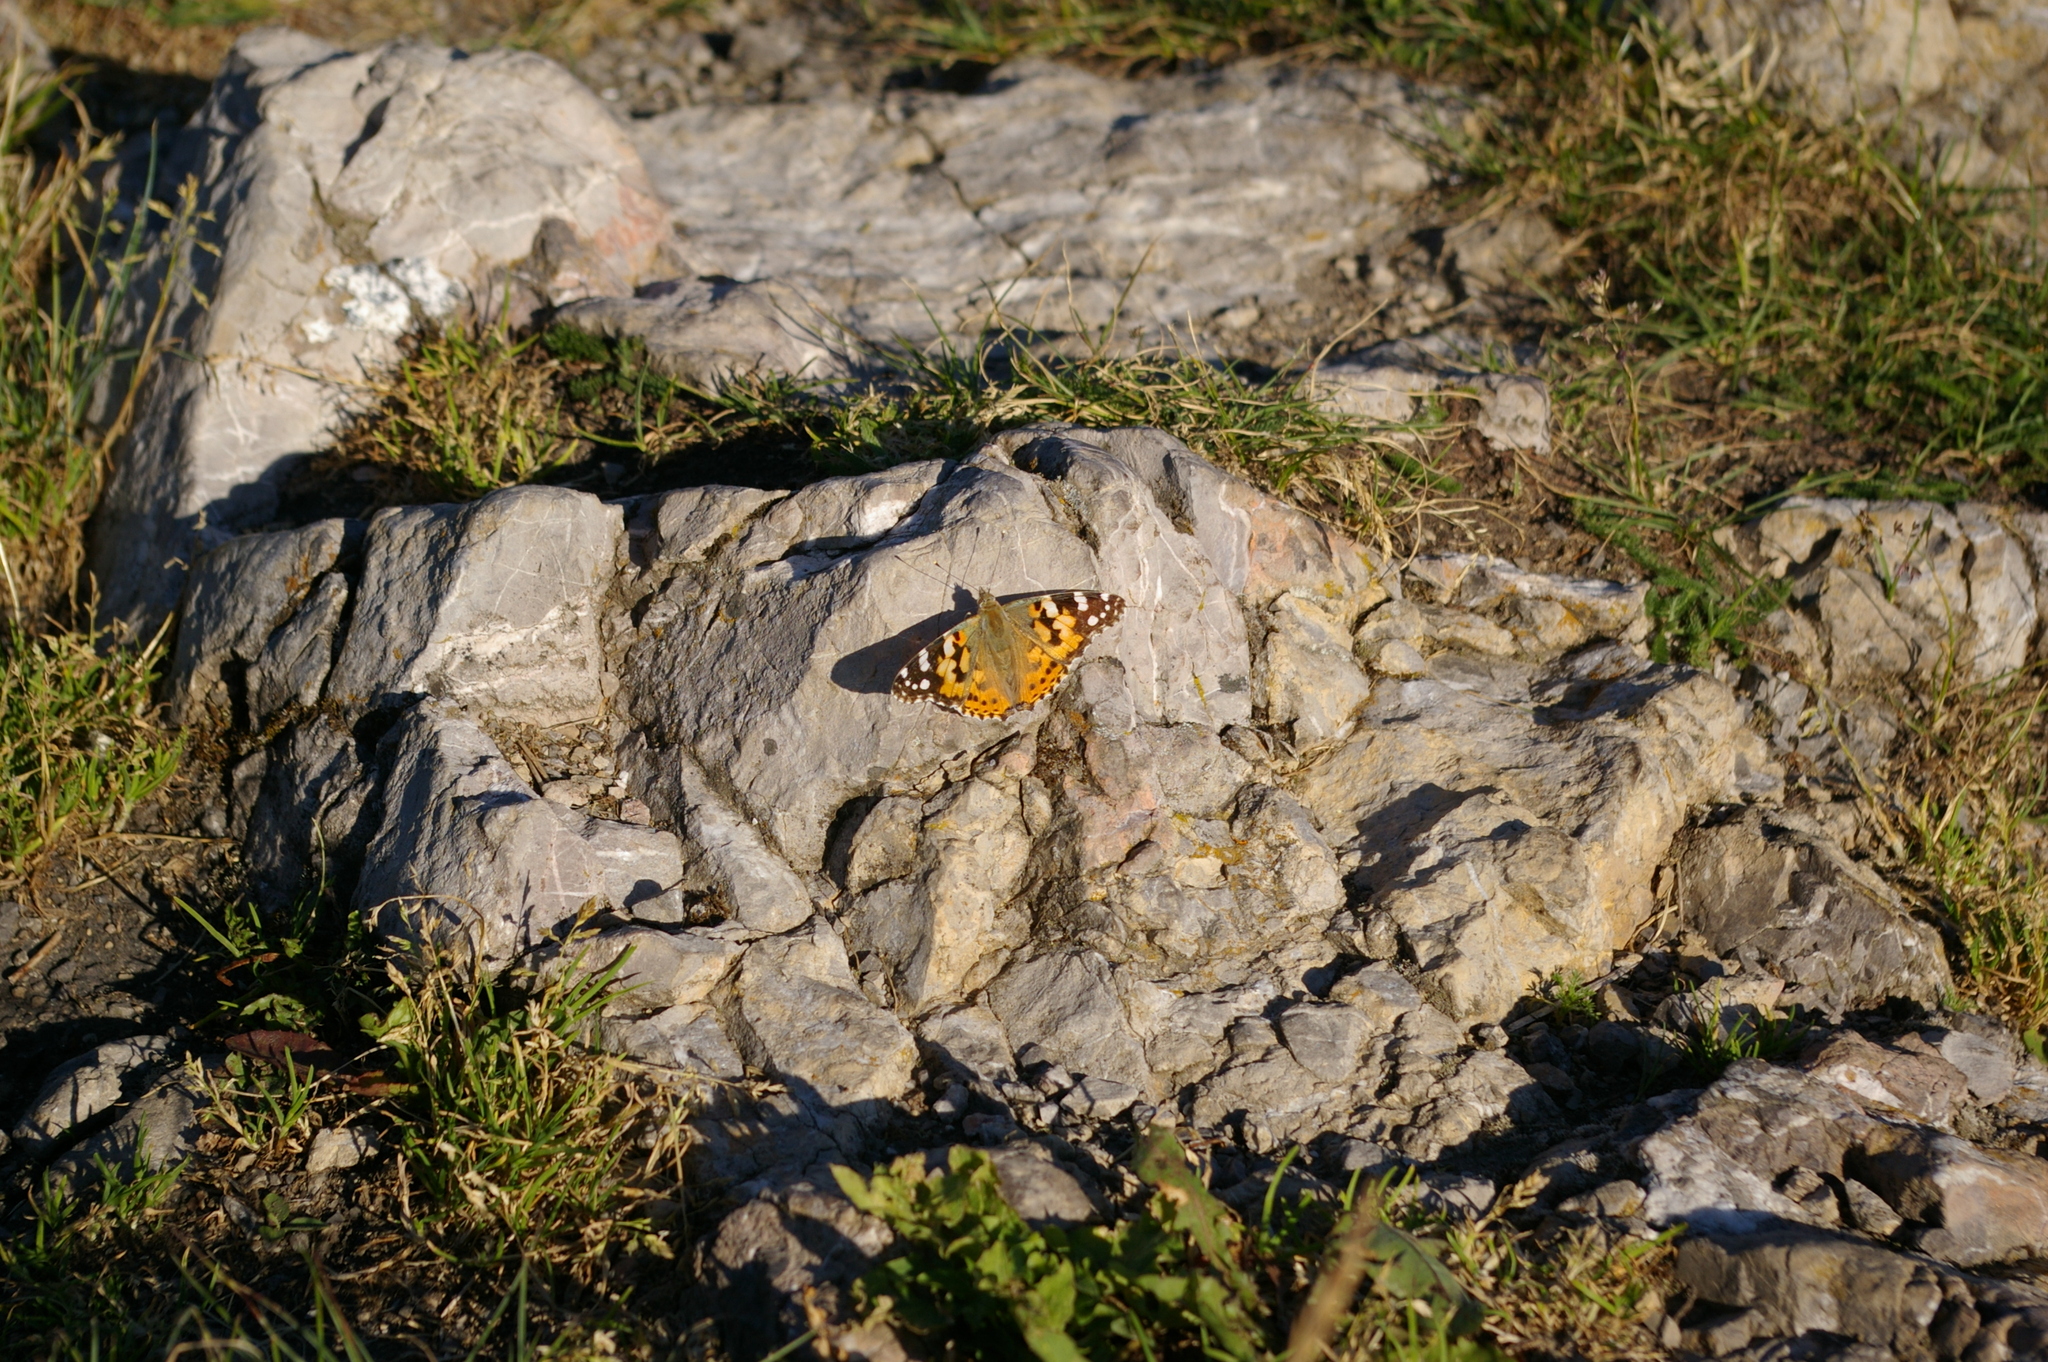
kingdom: Animalia
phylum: Arthropoda
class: Insecta
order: Lepidoptera
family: Nymphalidae
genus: Vanessa
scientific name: Vanessa cardui
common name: Painted lady
